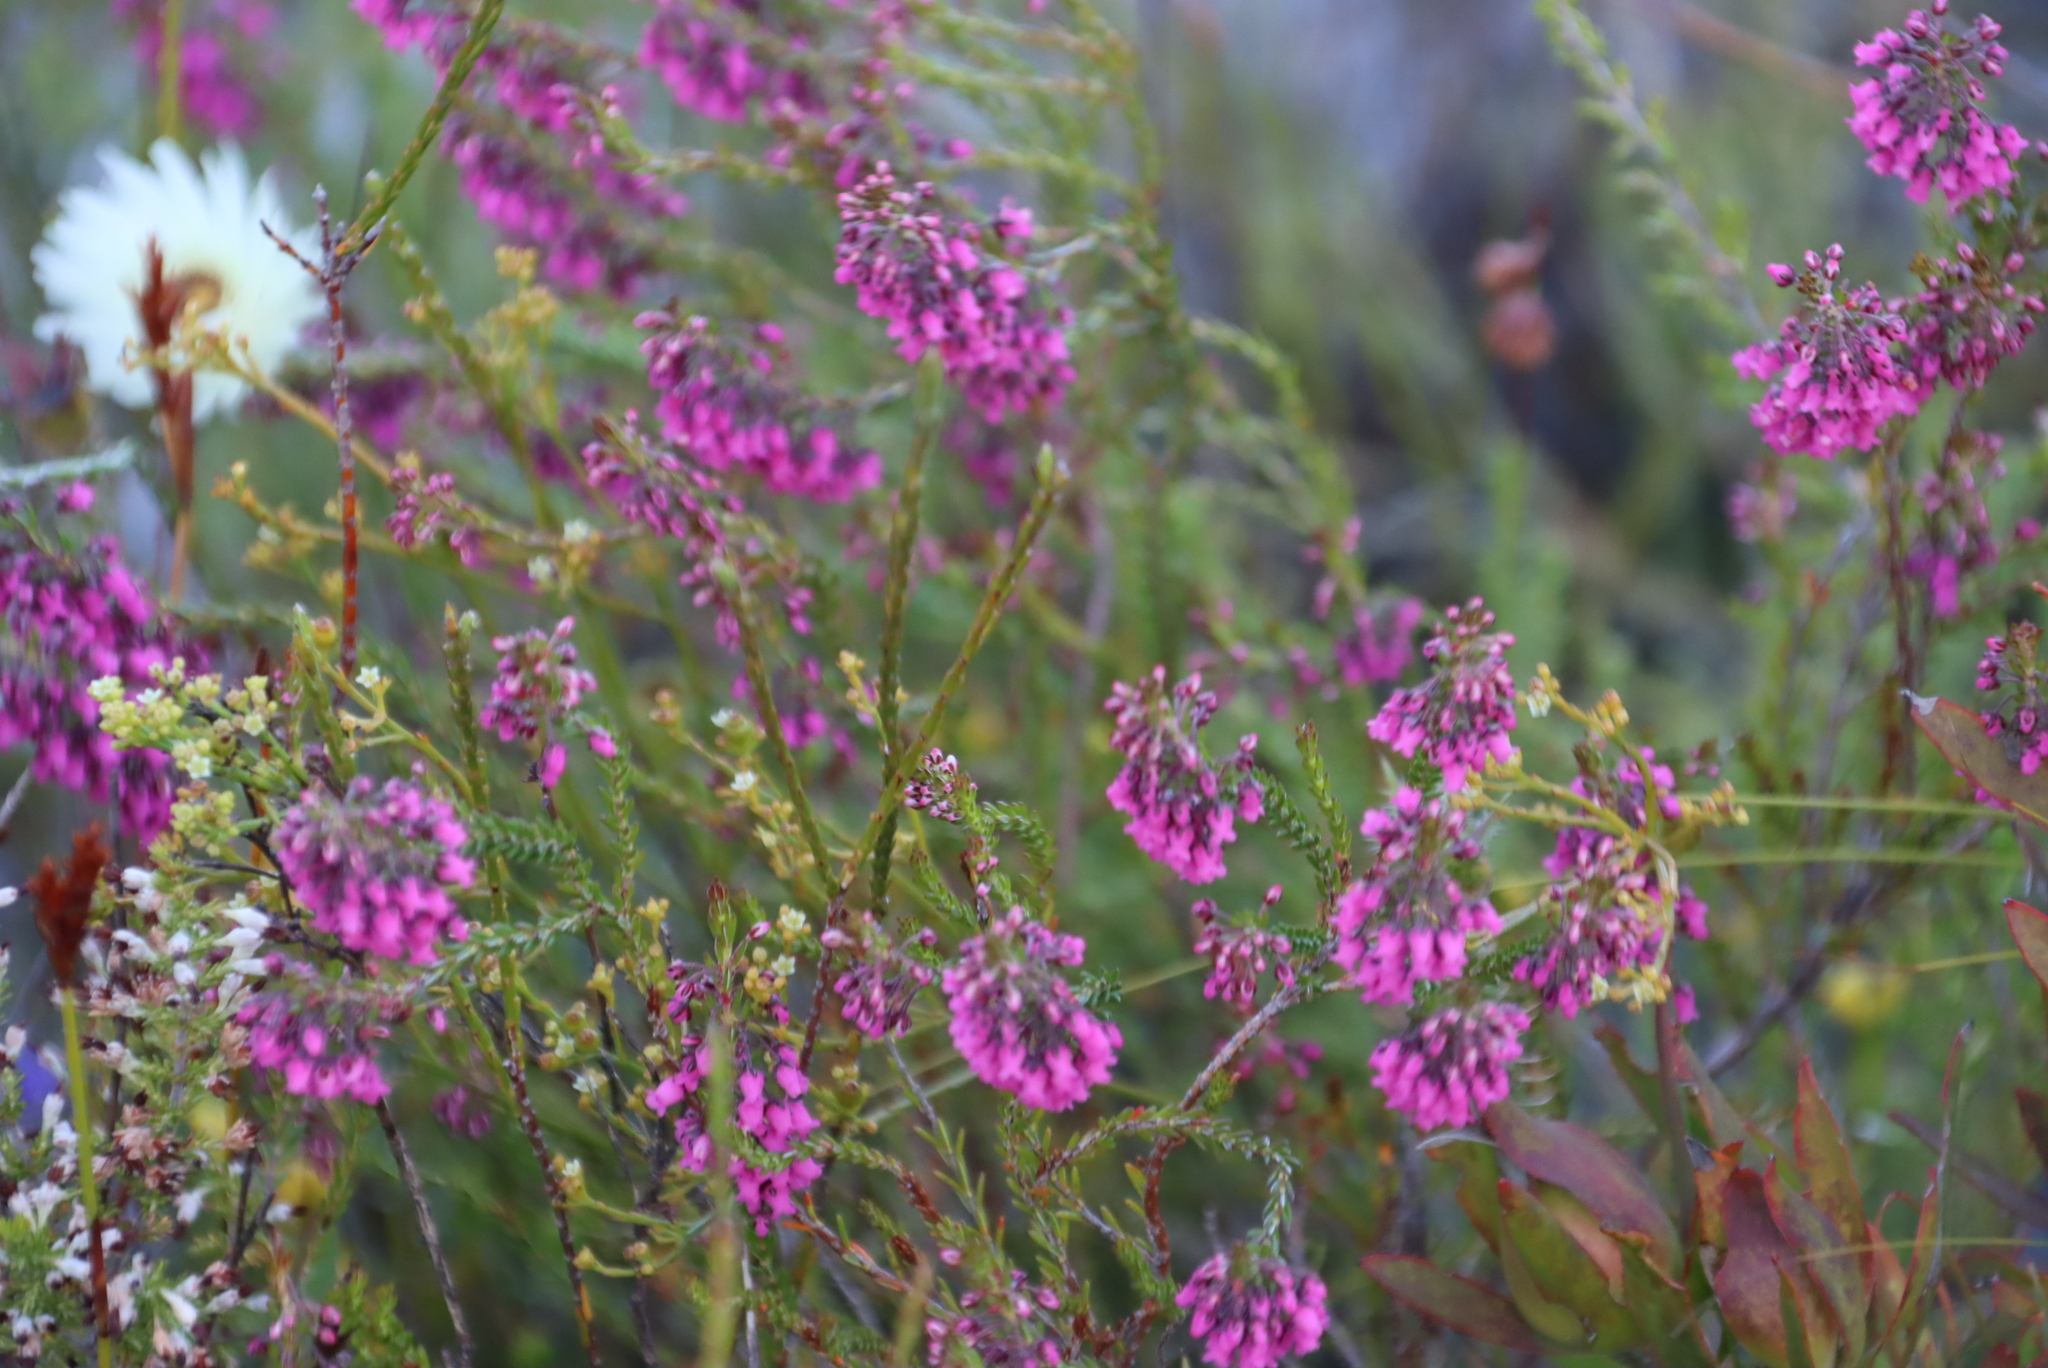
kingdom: Plantae
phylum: Tracheophyta
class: Magnoliopsida
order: Ericales
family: Ericaceae
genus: Erica
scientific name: Erica pulchella
